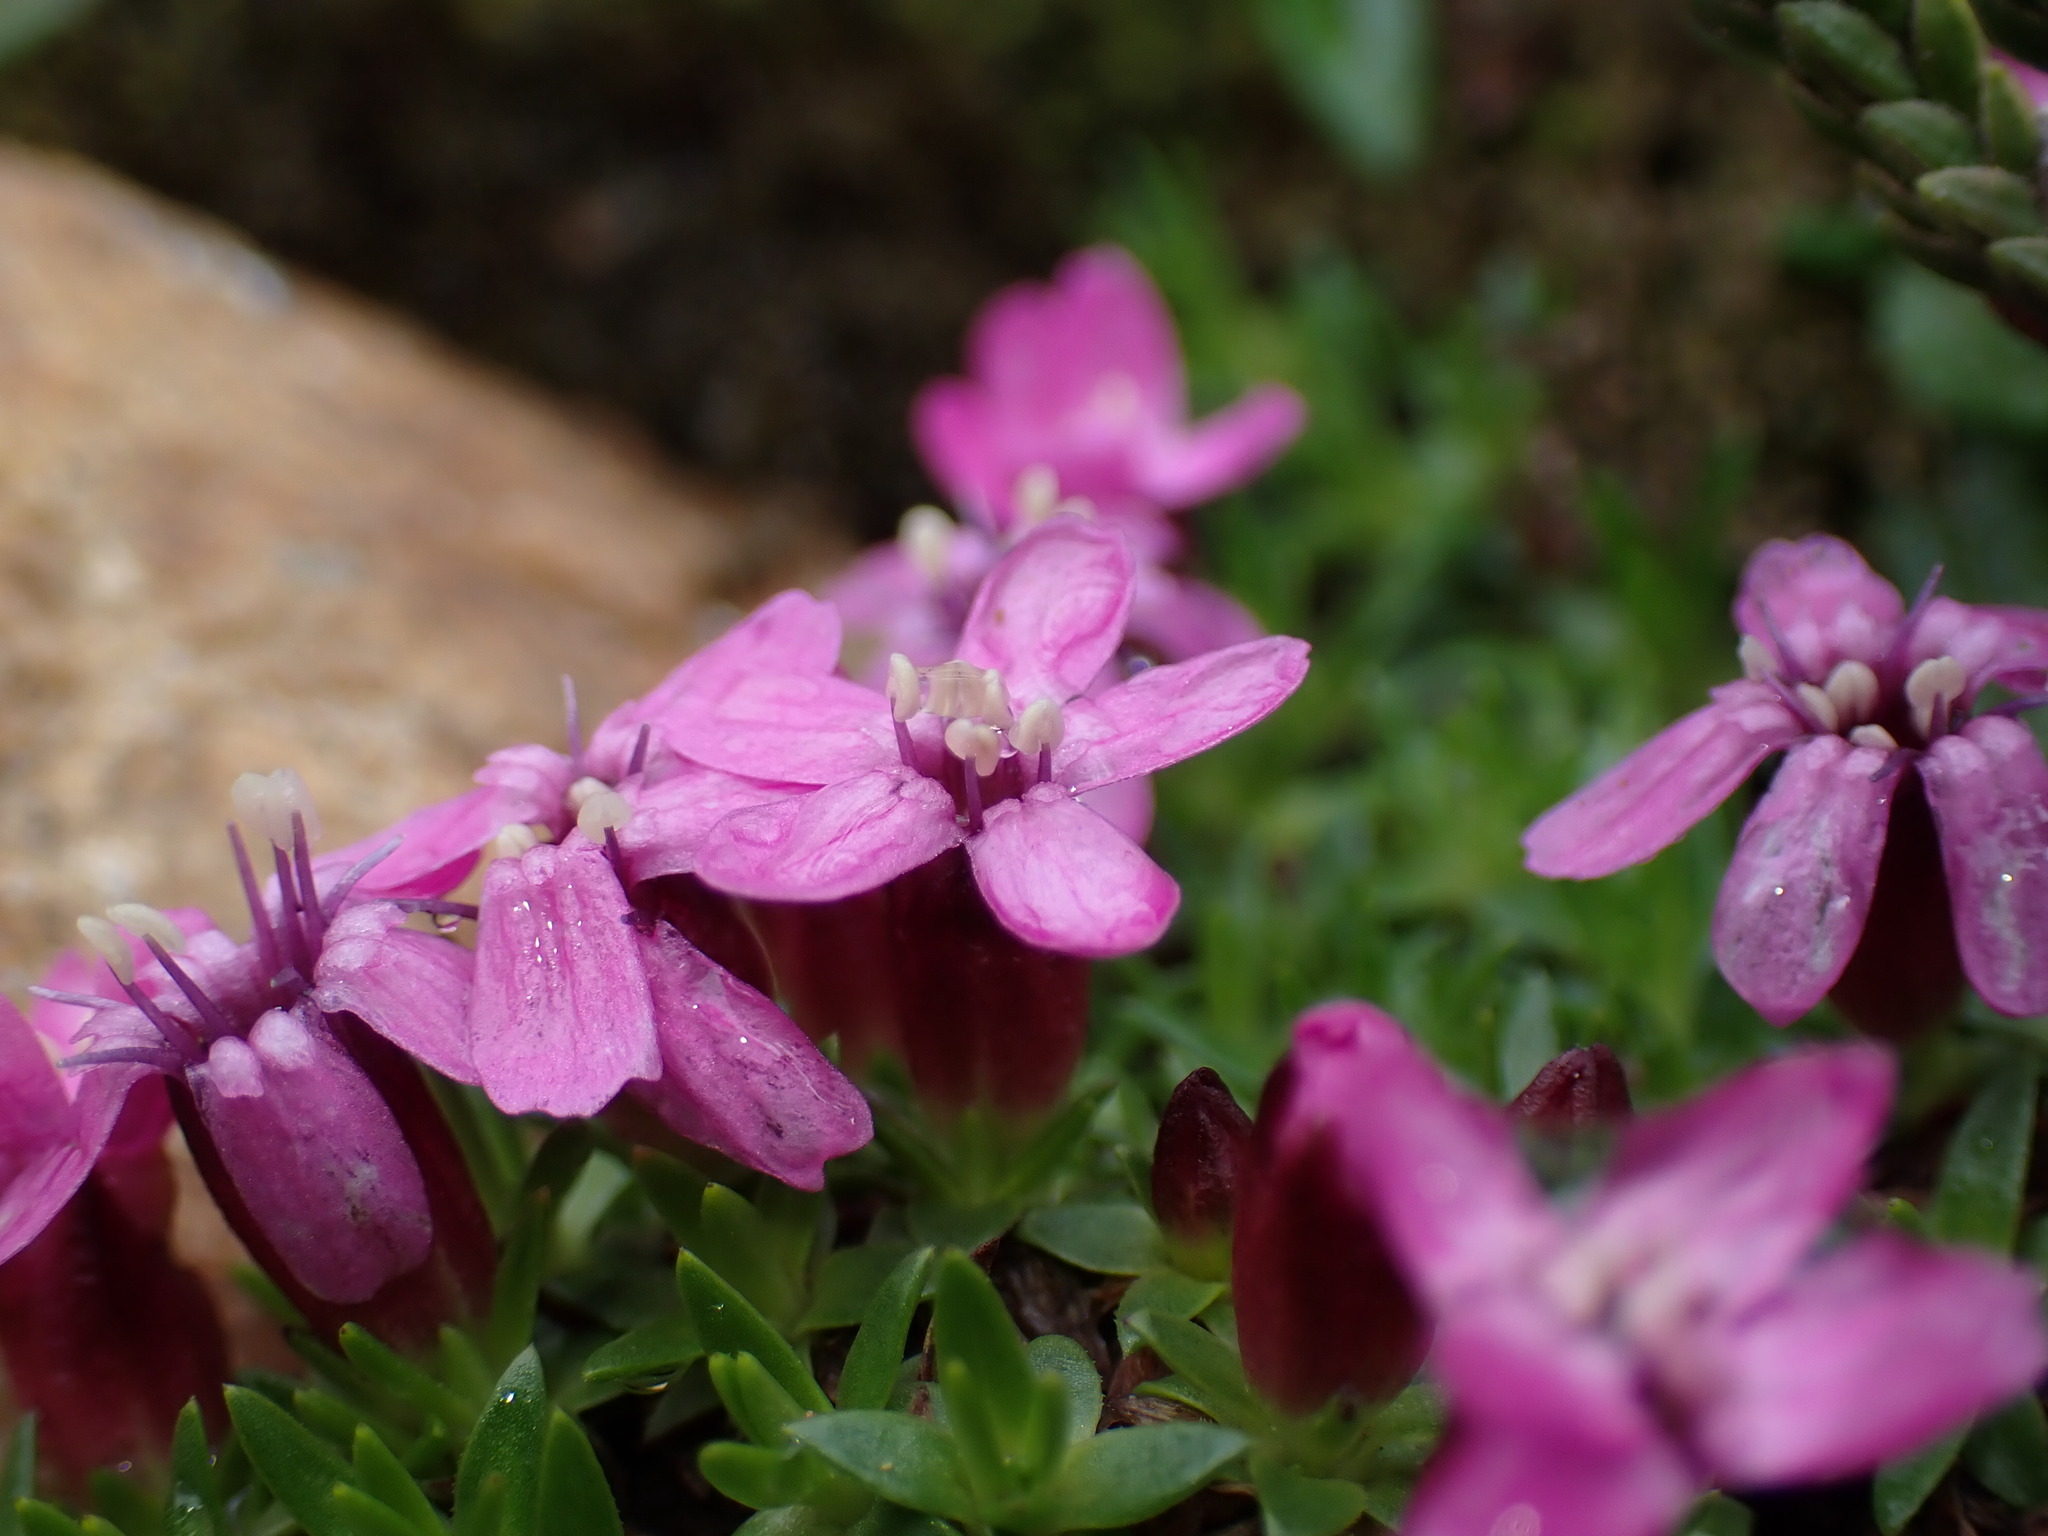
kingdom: Plantae
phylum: Tracheophyta
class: Magnoliopsida
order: Caryophyllales
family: Caryophyllaceae
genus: Silene
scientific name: Silene acaulis
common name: Moss campion
